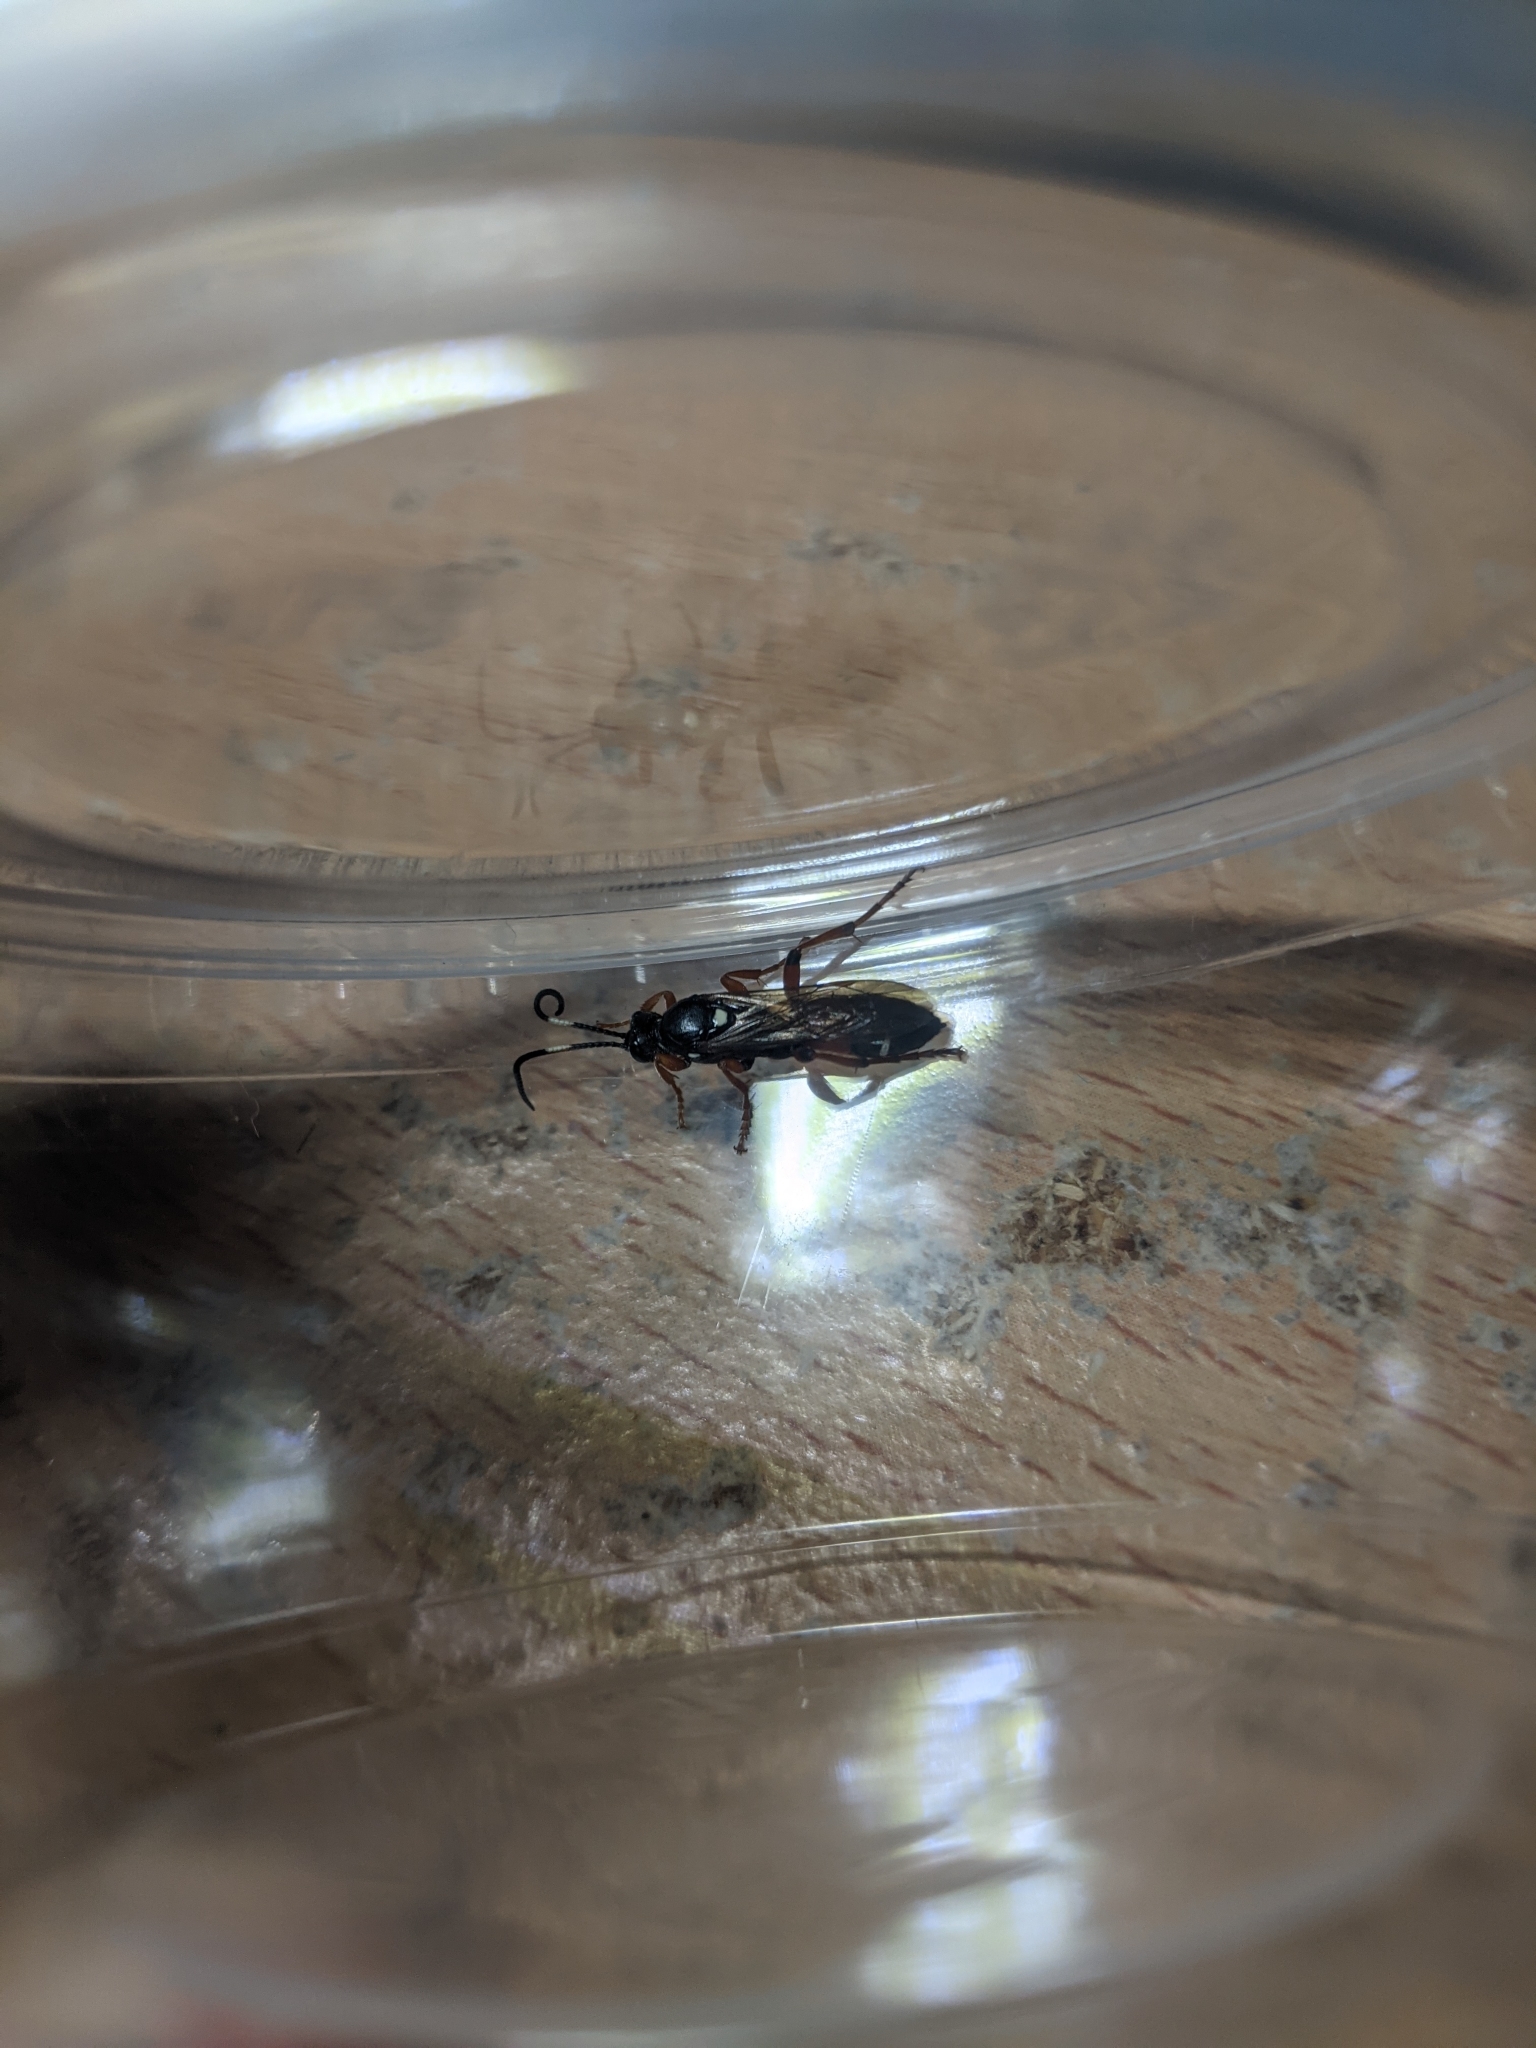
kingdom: Animalia
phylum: Arthropoda
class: Insecta
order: Hymenoptera
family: Ichneumonidae
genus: Ichneumon
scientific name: Ichneumon promissorius
